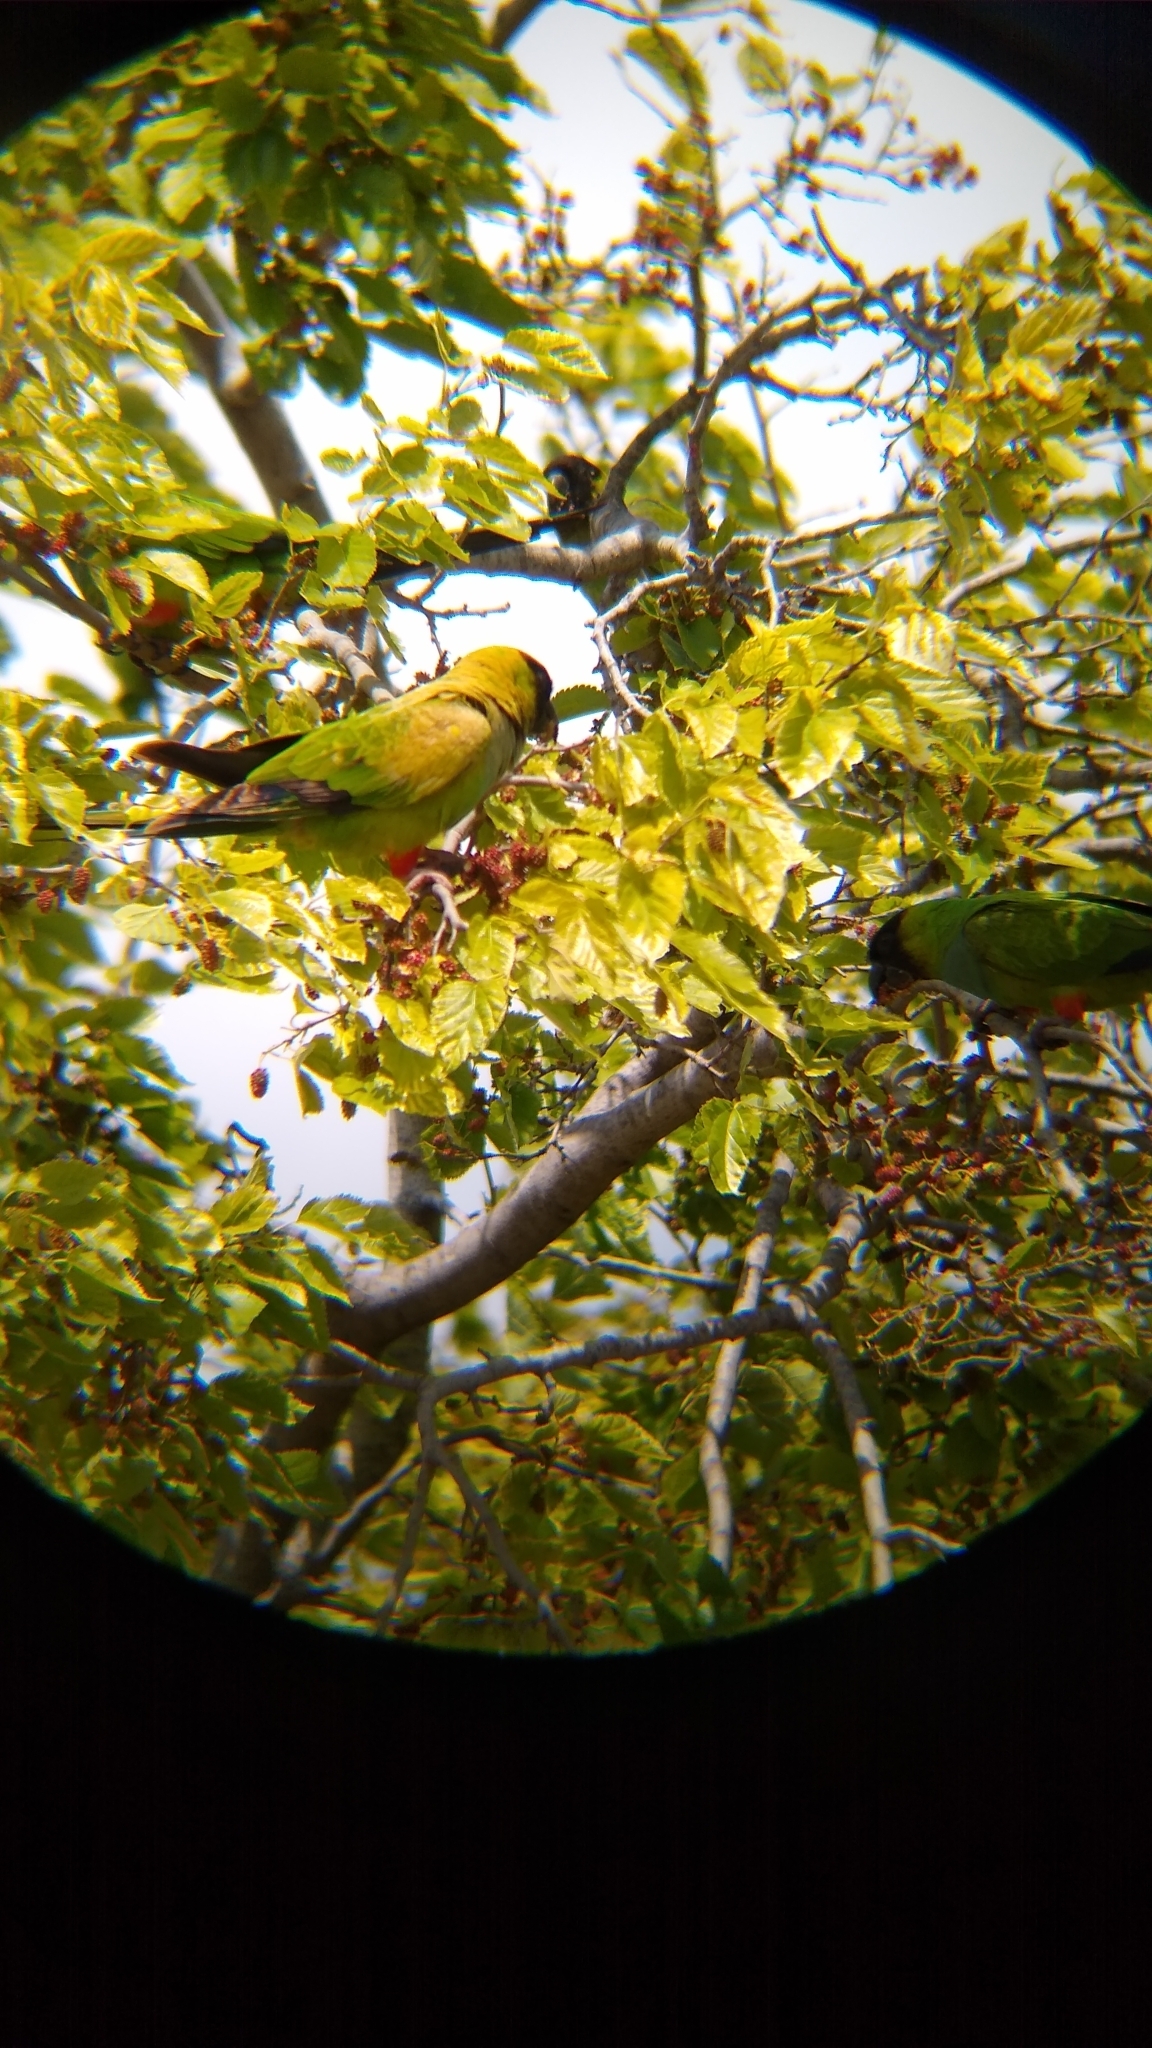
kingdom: Animalia
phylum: Chordata
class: Aves
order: Psittaciformes
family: Psittacidae
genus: Nandayus
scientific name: Nandayus nenday
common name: Nanday parakeet
